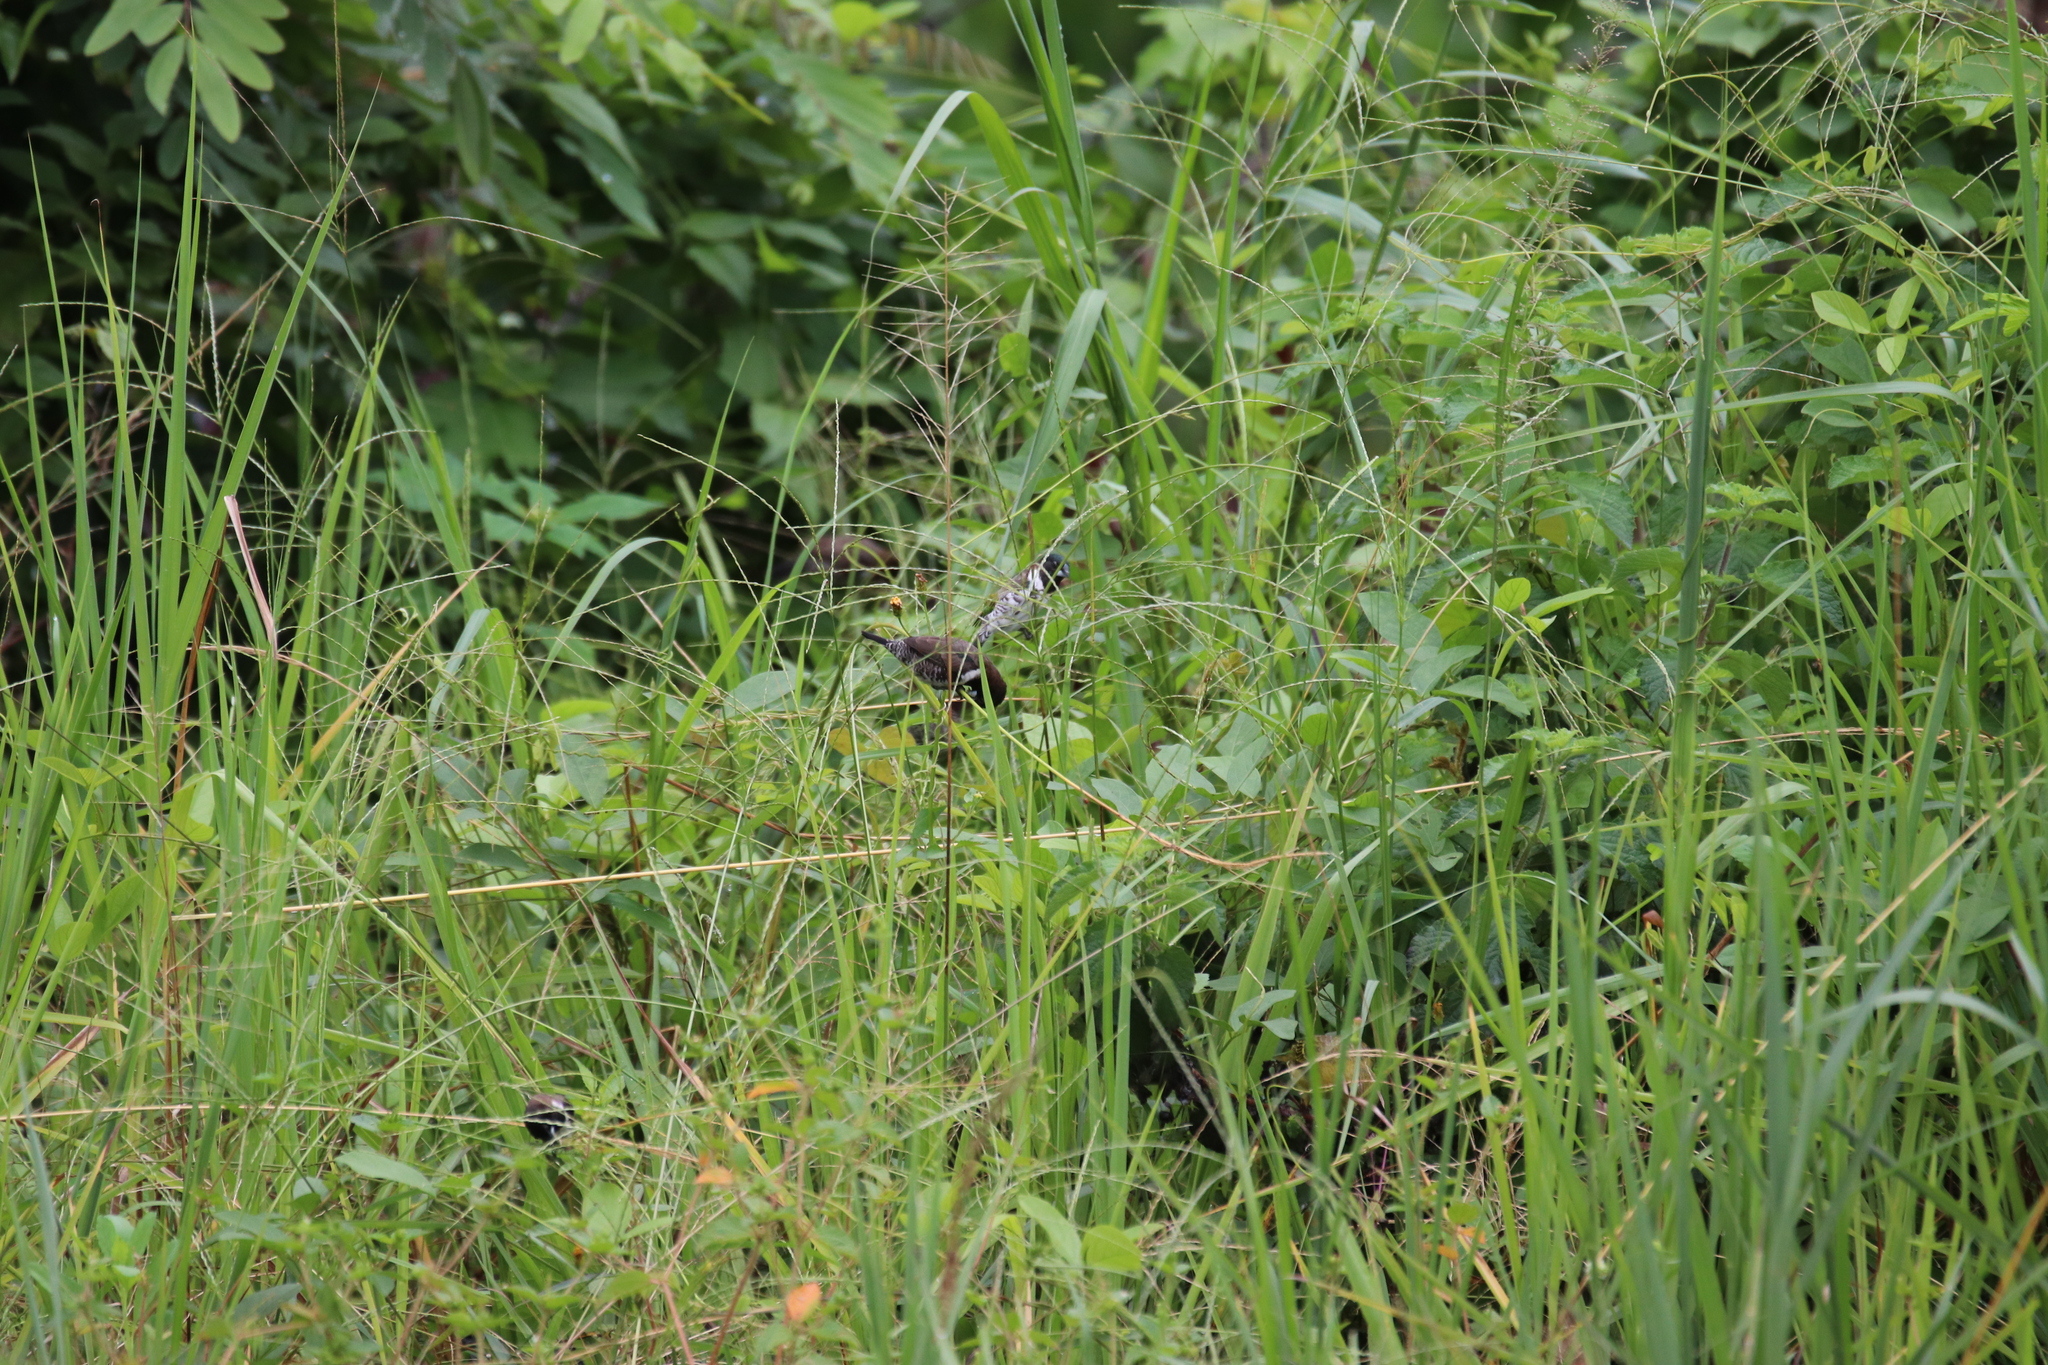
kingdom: Animalia
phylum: Chordata
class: Aves
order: Passeriformes
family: Estrildidae
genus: Lonchura
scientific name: Lonchura cucullata
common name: Bronze mannikin
